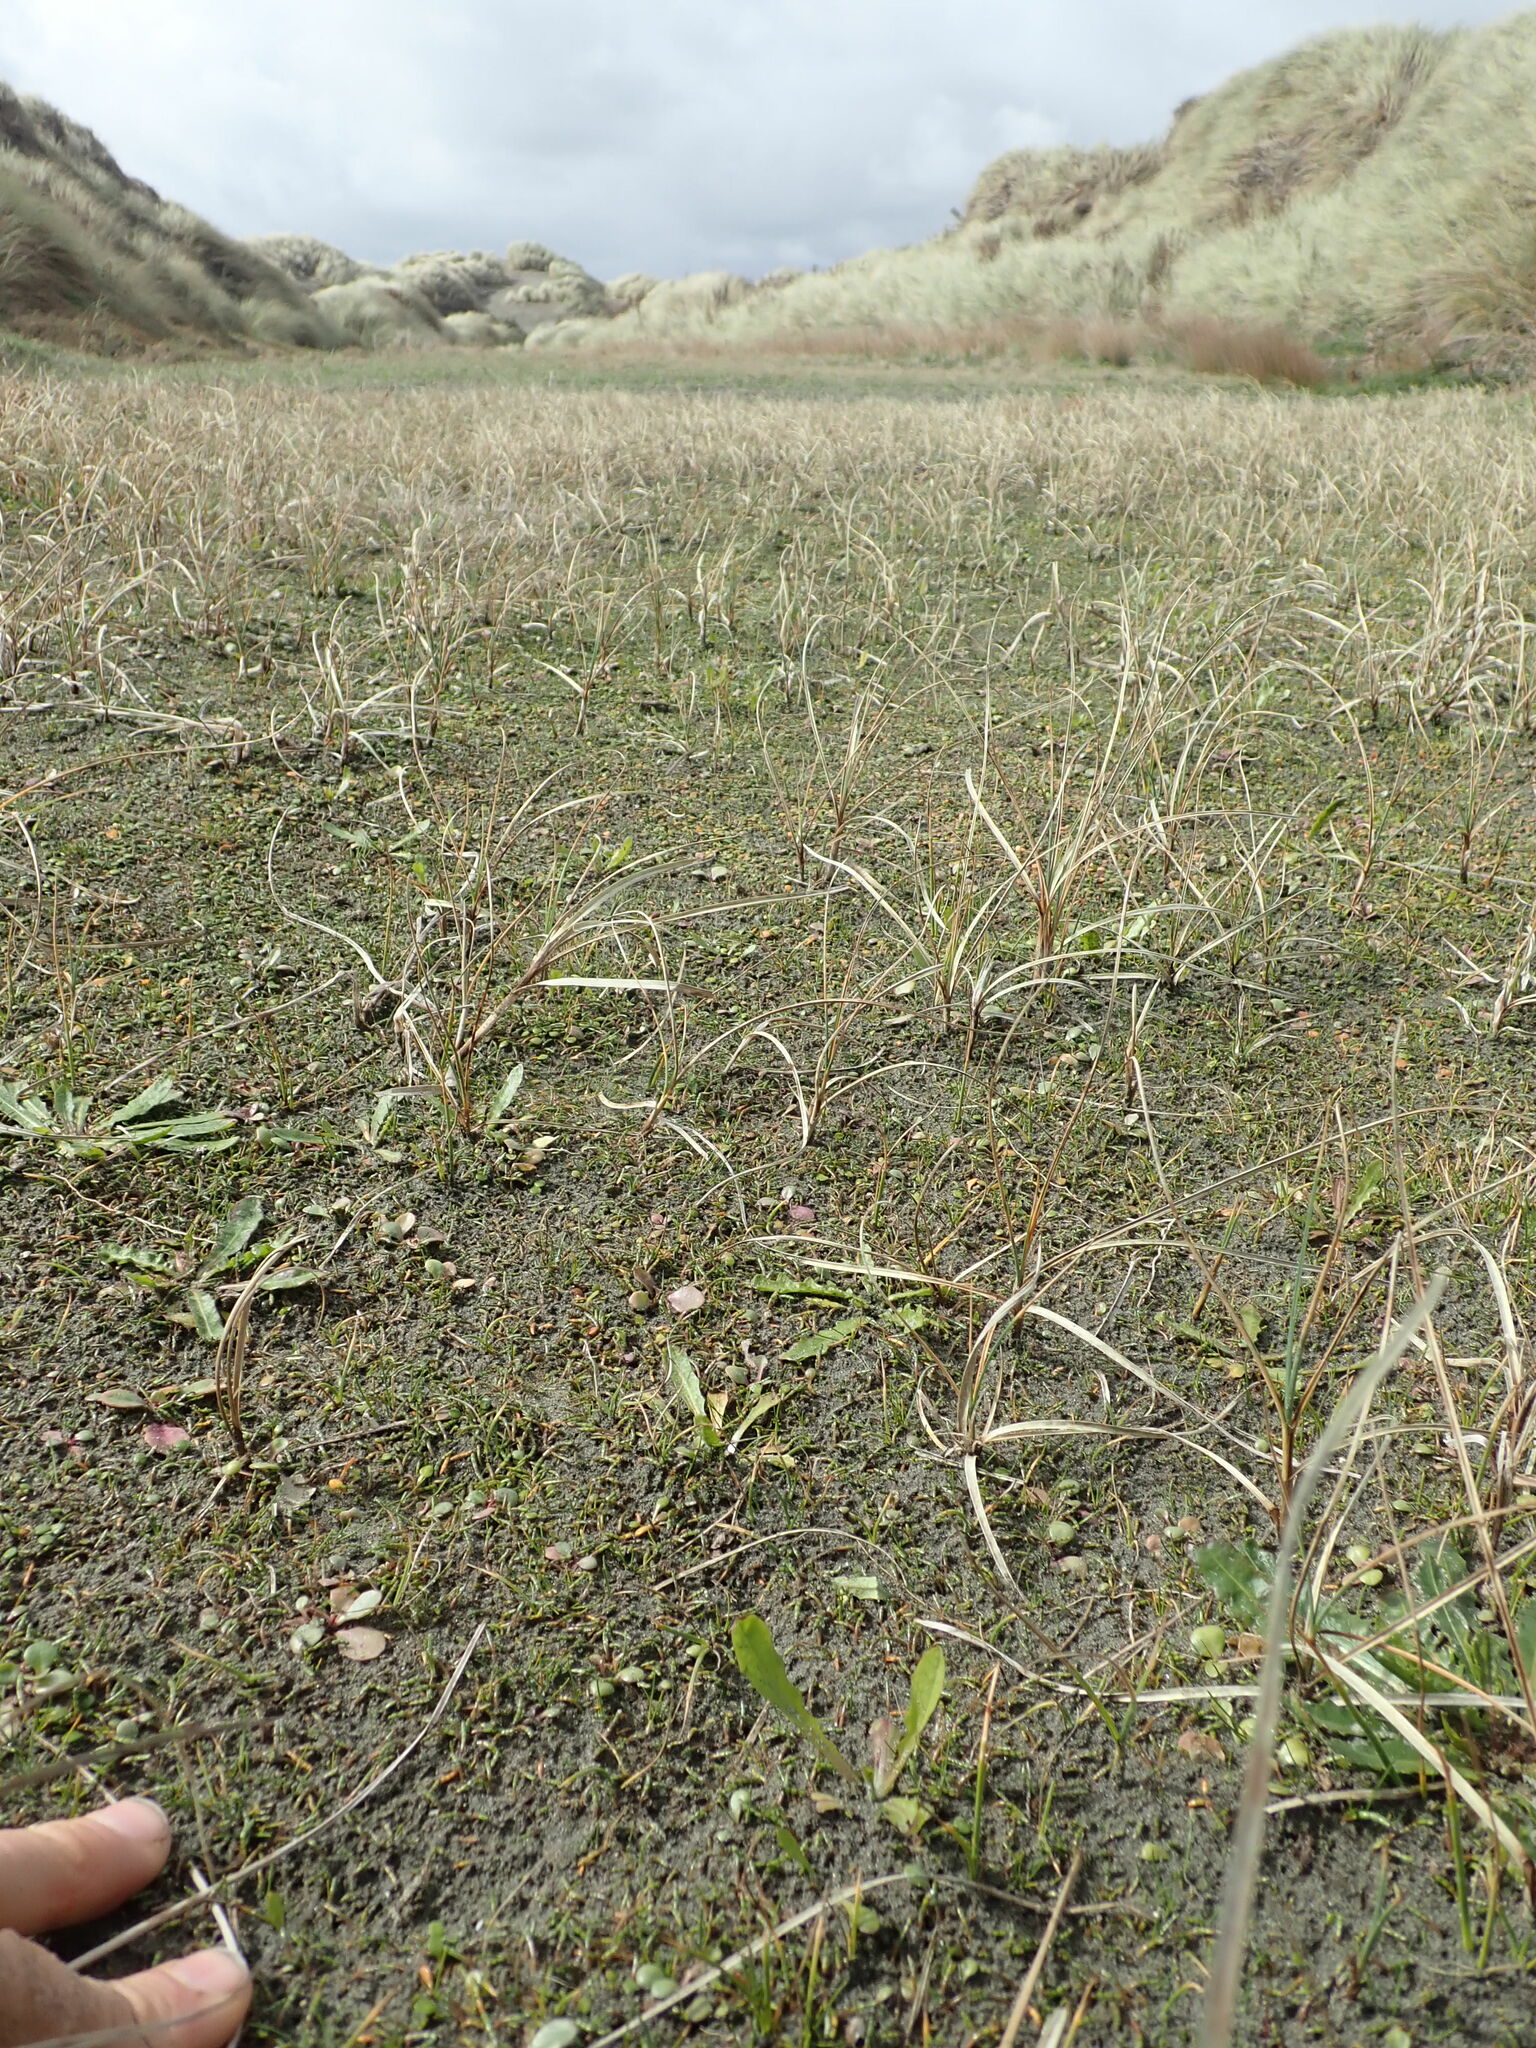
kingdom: Plantae
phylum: Tracheophyta
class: Magnoliopsida
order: Apiales
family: Apiaceae
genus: Lilaeopsis
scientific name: Lilaeopsis novae-zelandiae
